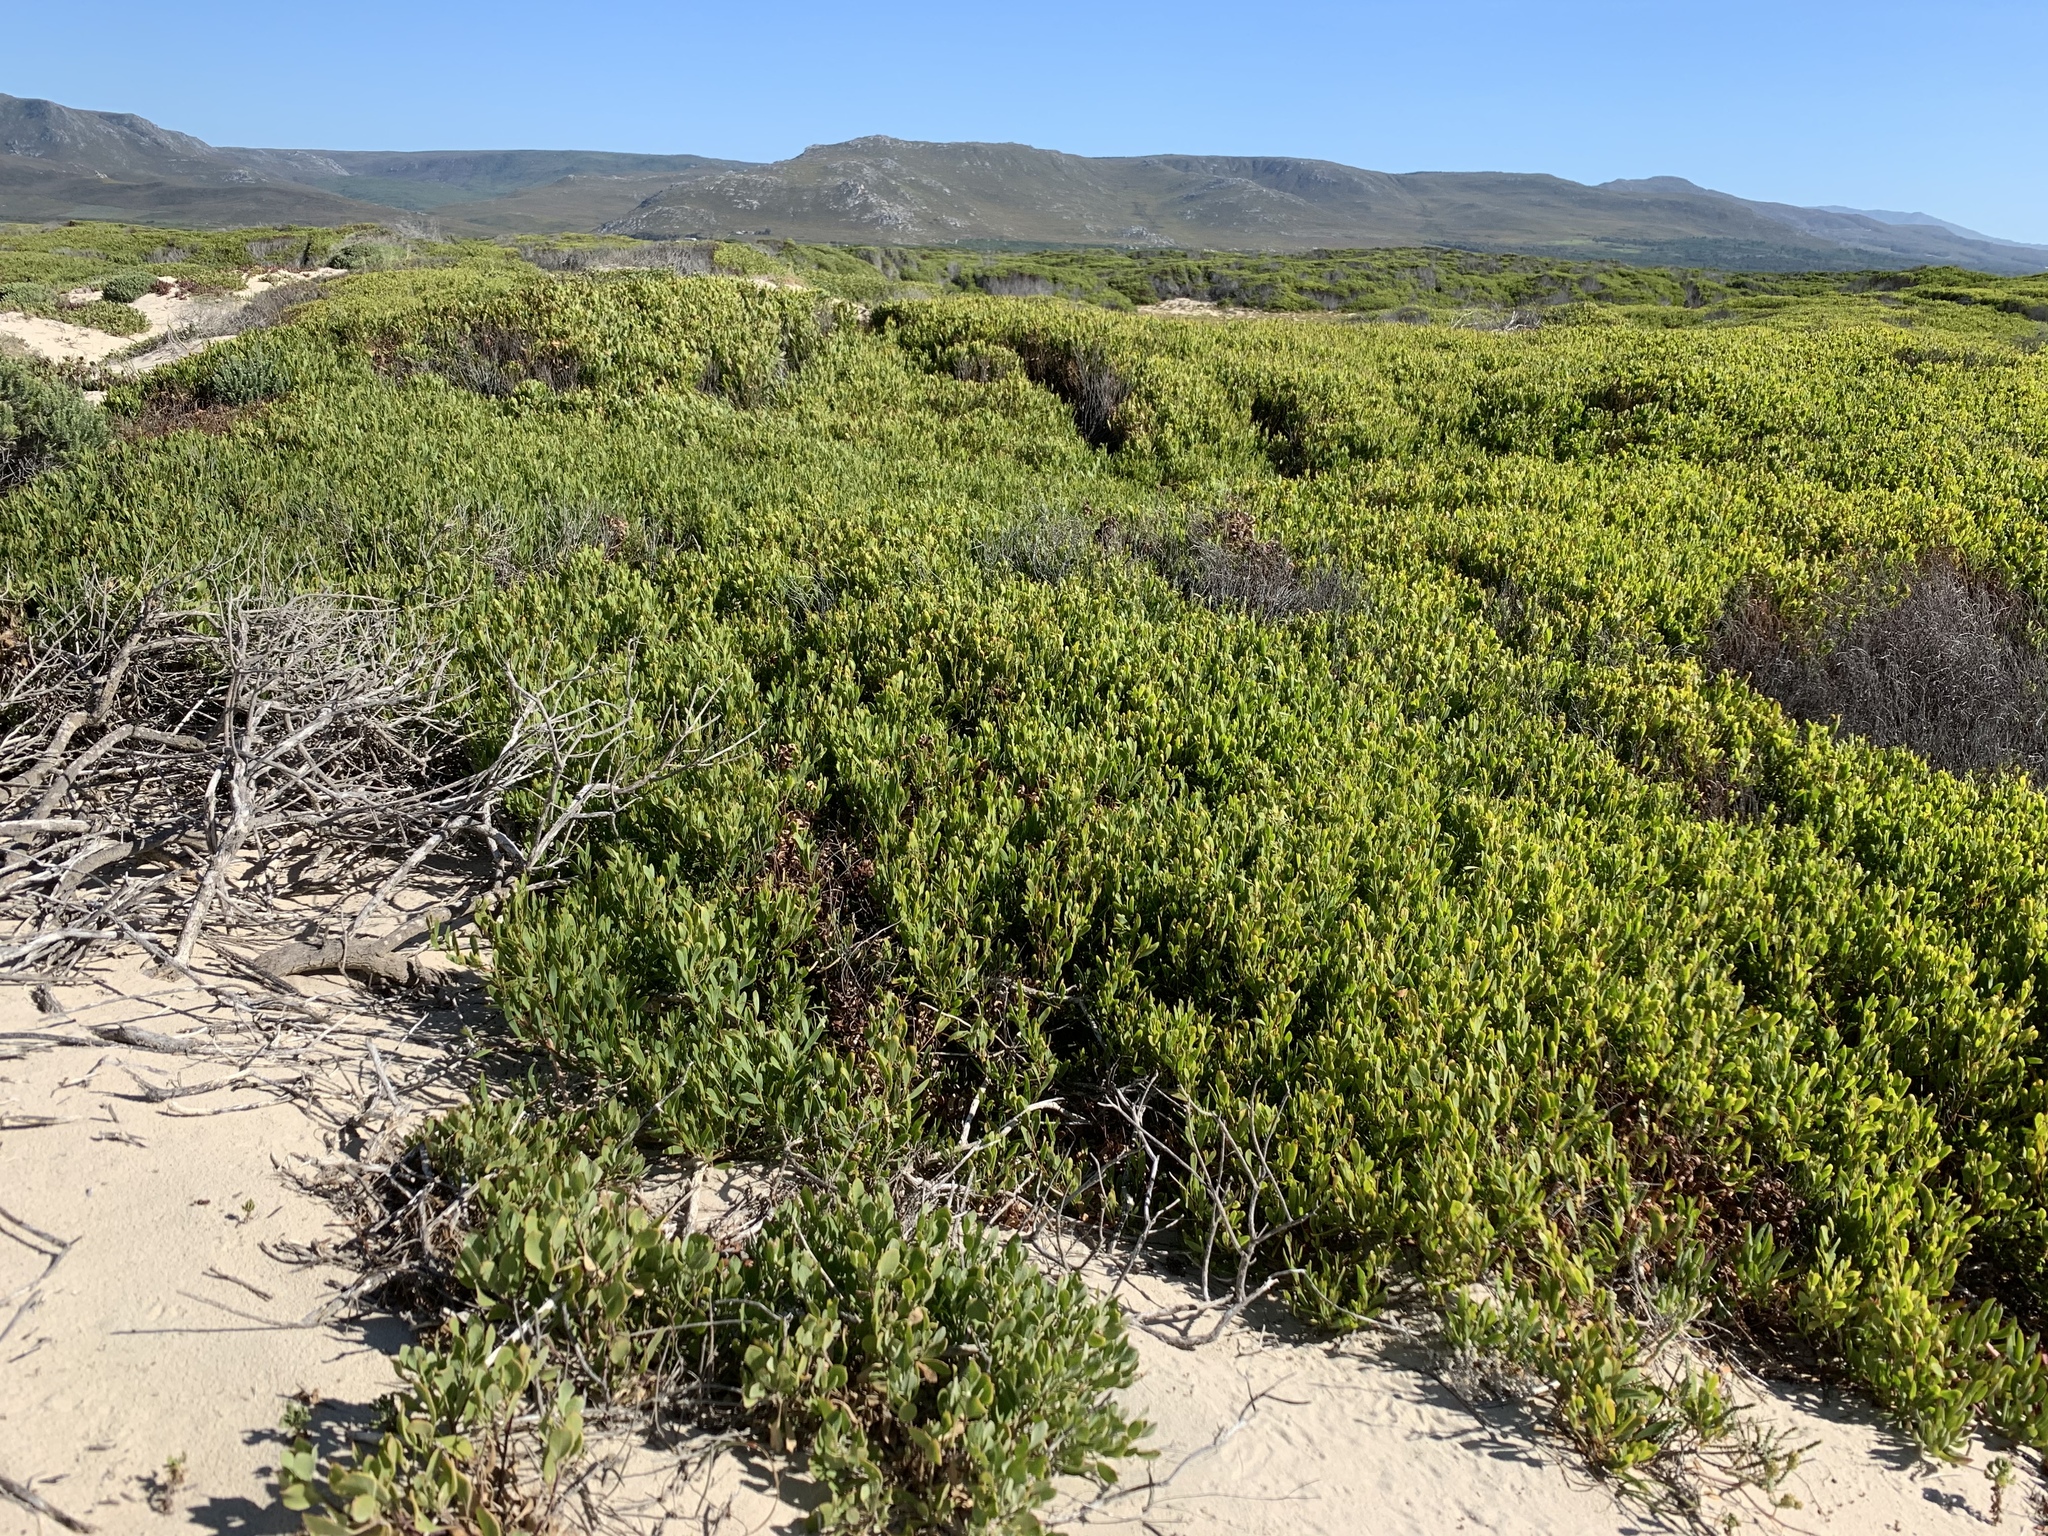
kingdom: Plantae
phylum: Tracheophyta
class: Magnoliopsida
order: Fabales
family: Fabaceae
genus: Acacia
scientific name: Acacia cyclops
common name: Coastal wattle
